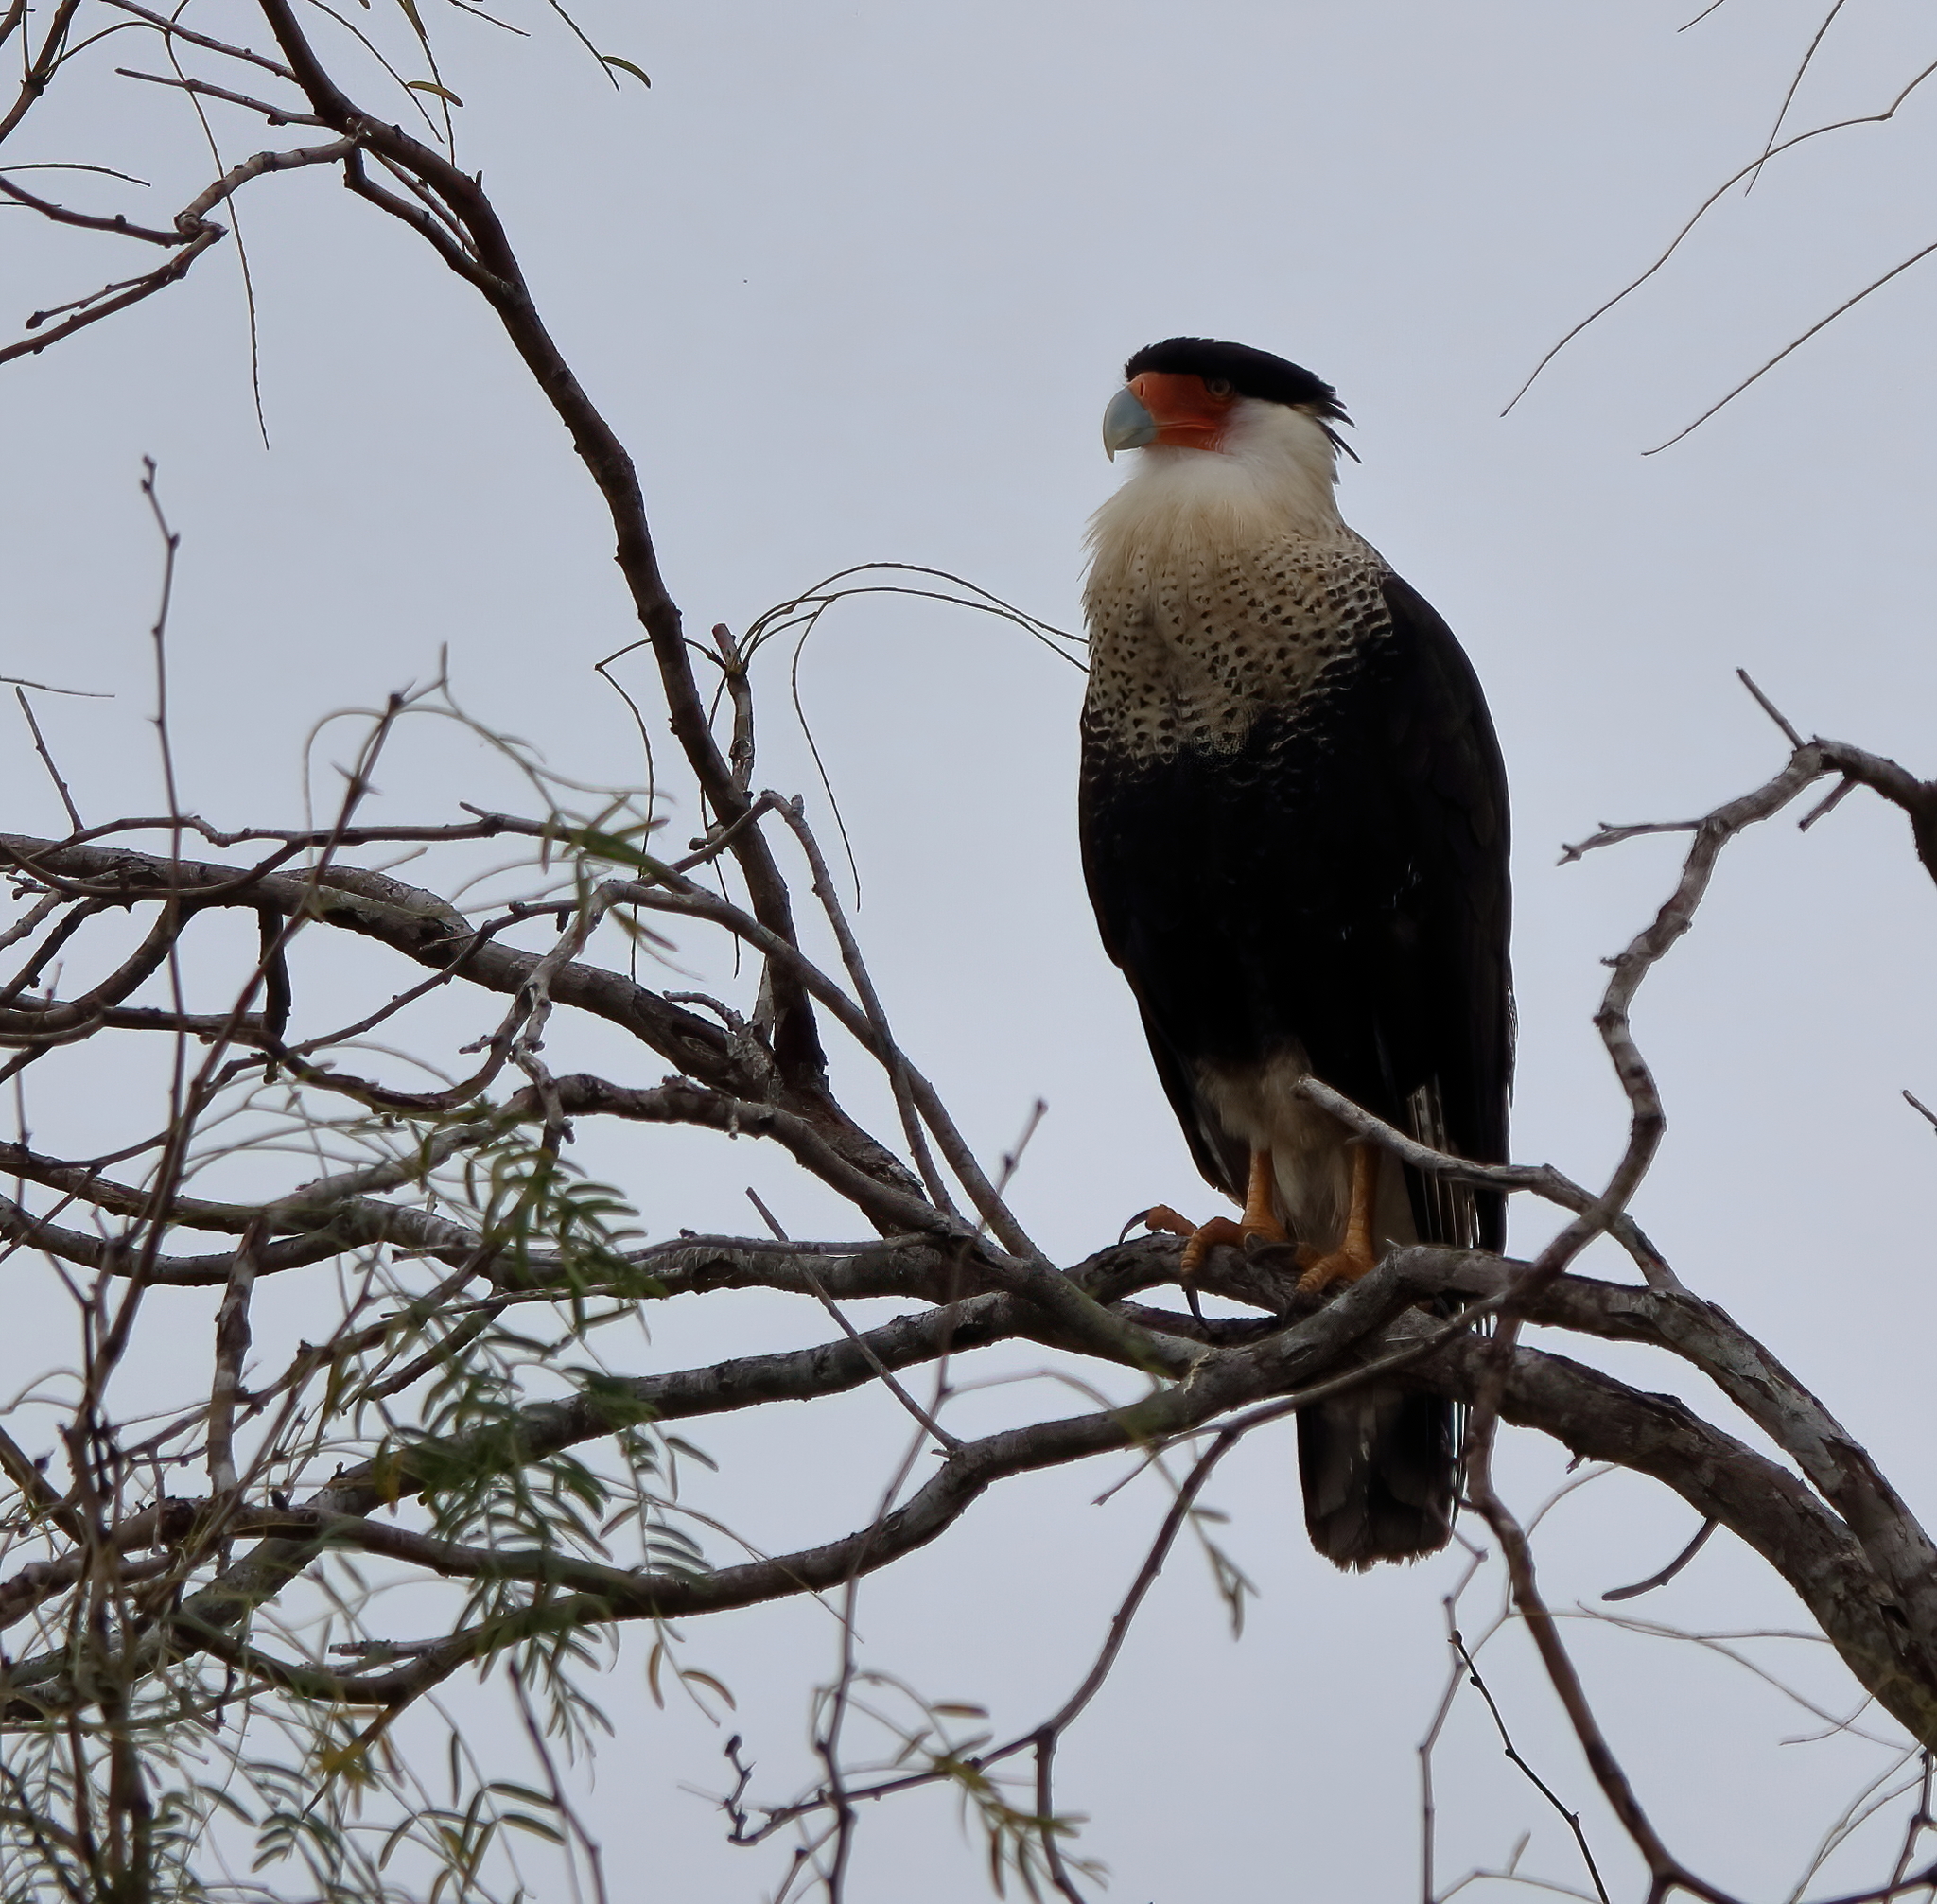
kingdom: Animalia
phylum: Chordata
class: Aves
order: Falconiformes
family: Falconidae
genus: Caracara
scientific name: Caracara plancus
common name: Southern caracara
